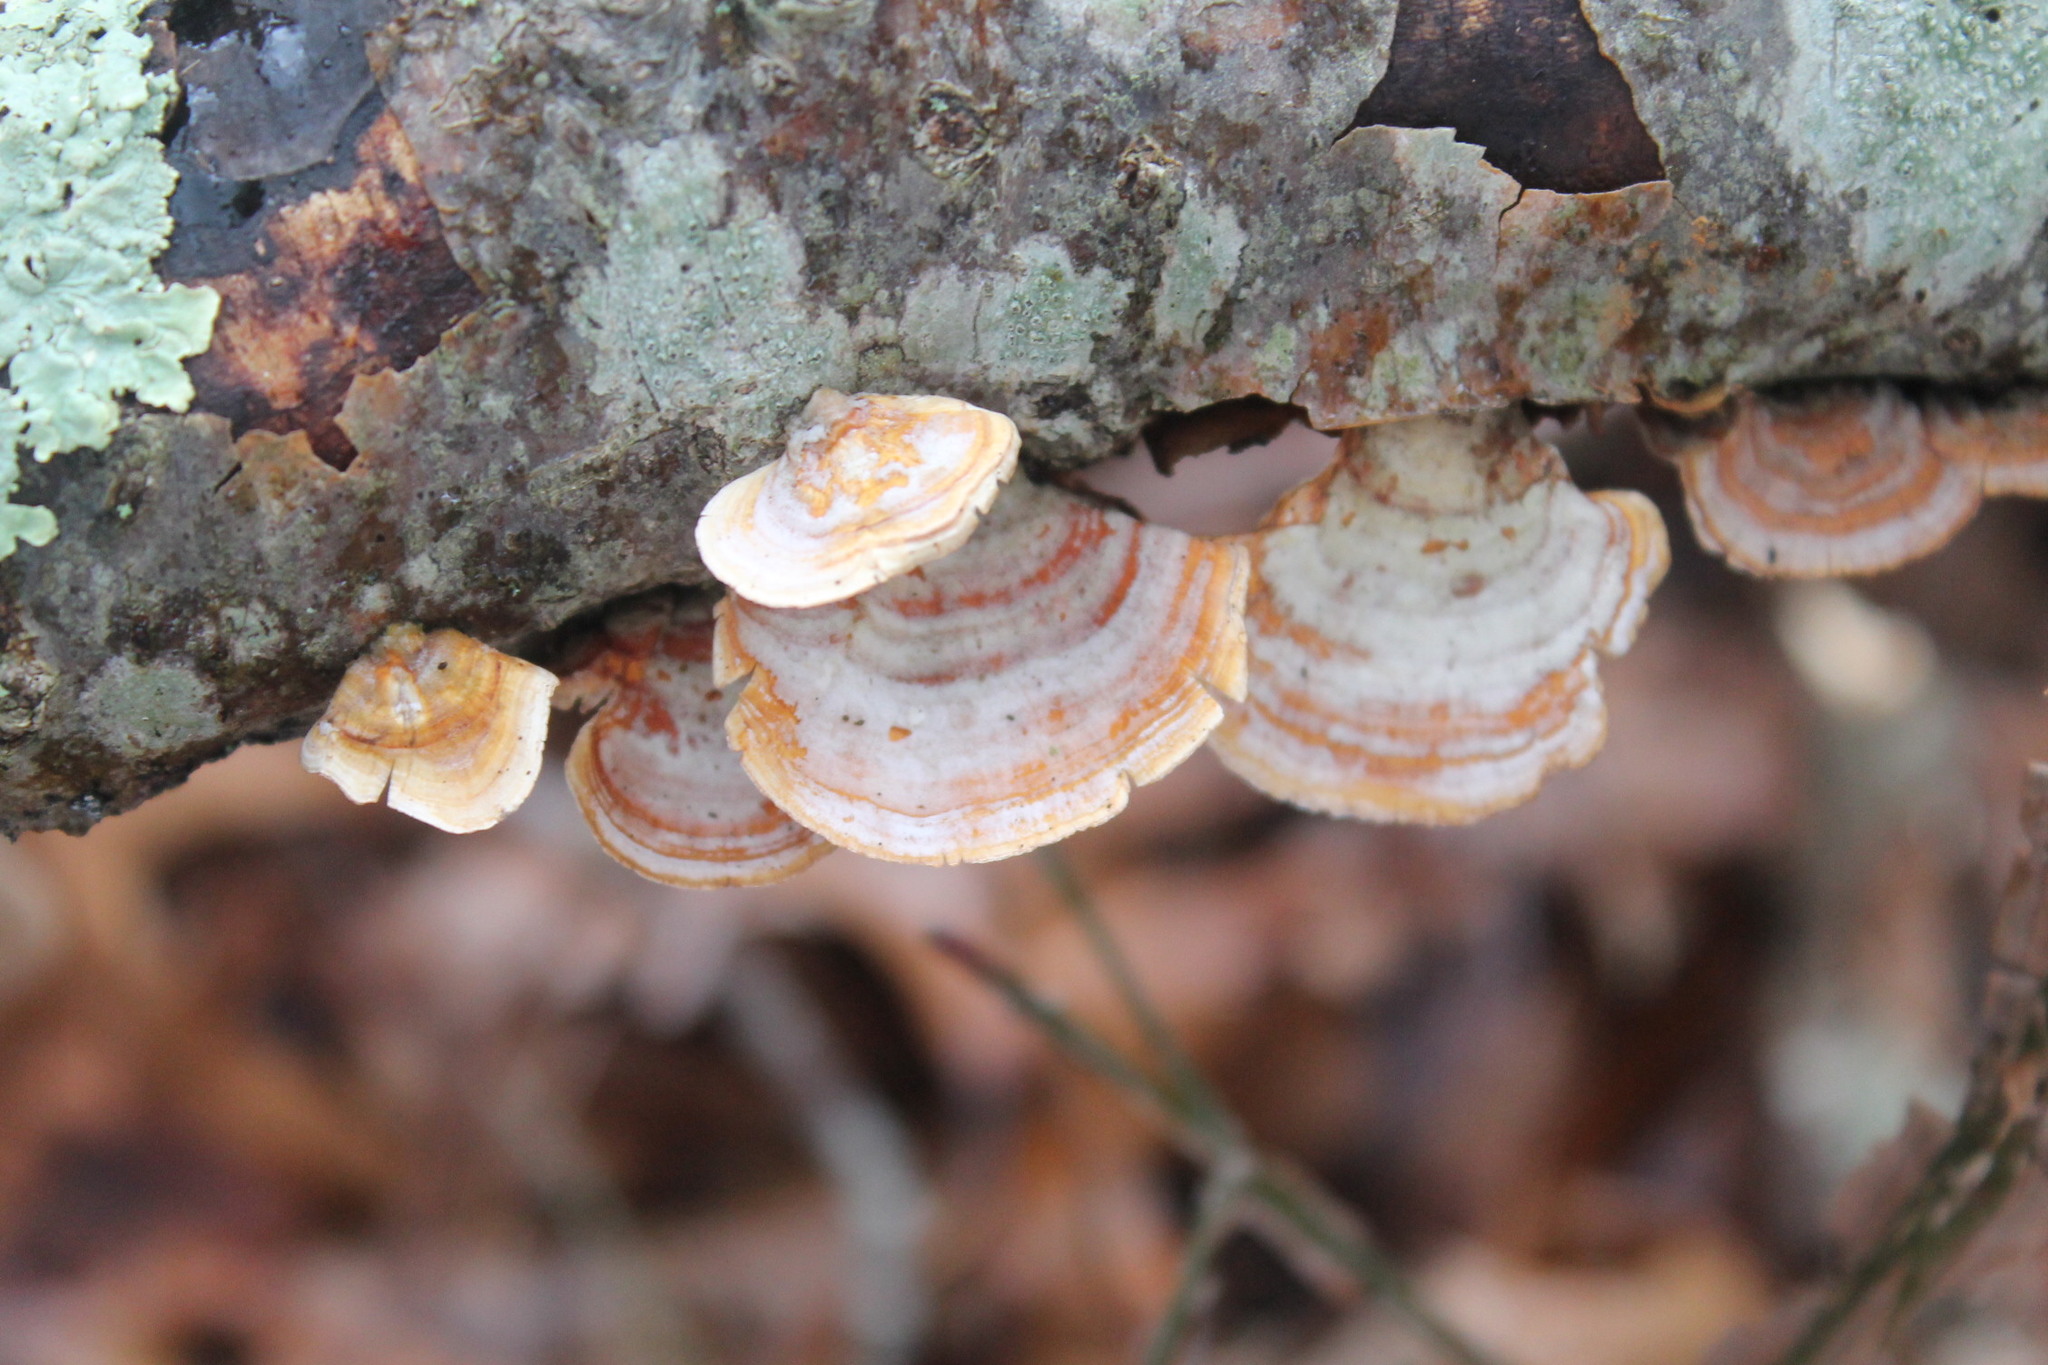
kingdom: Fungi
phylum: Basidiomycota
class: Agaricomycetes
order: Russulales
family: Stereaceae
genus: Stereum
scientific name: Stereum lobatum
